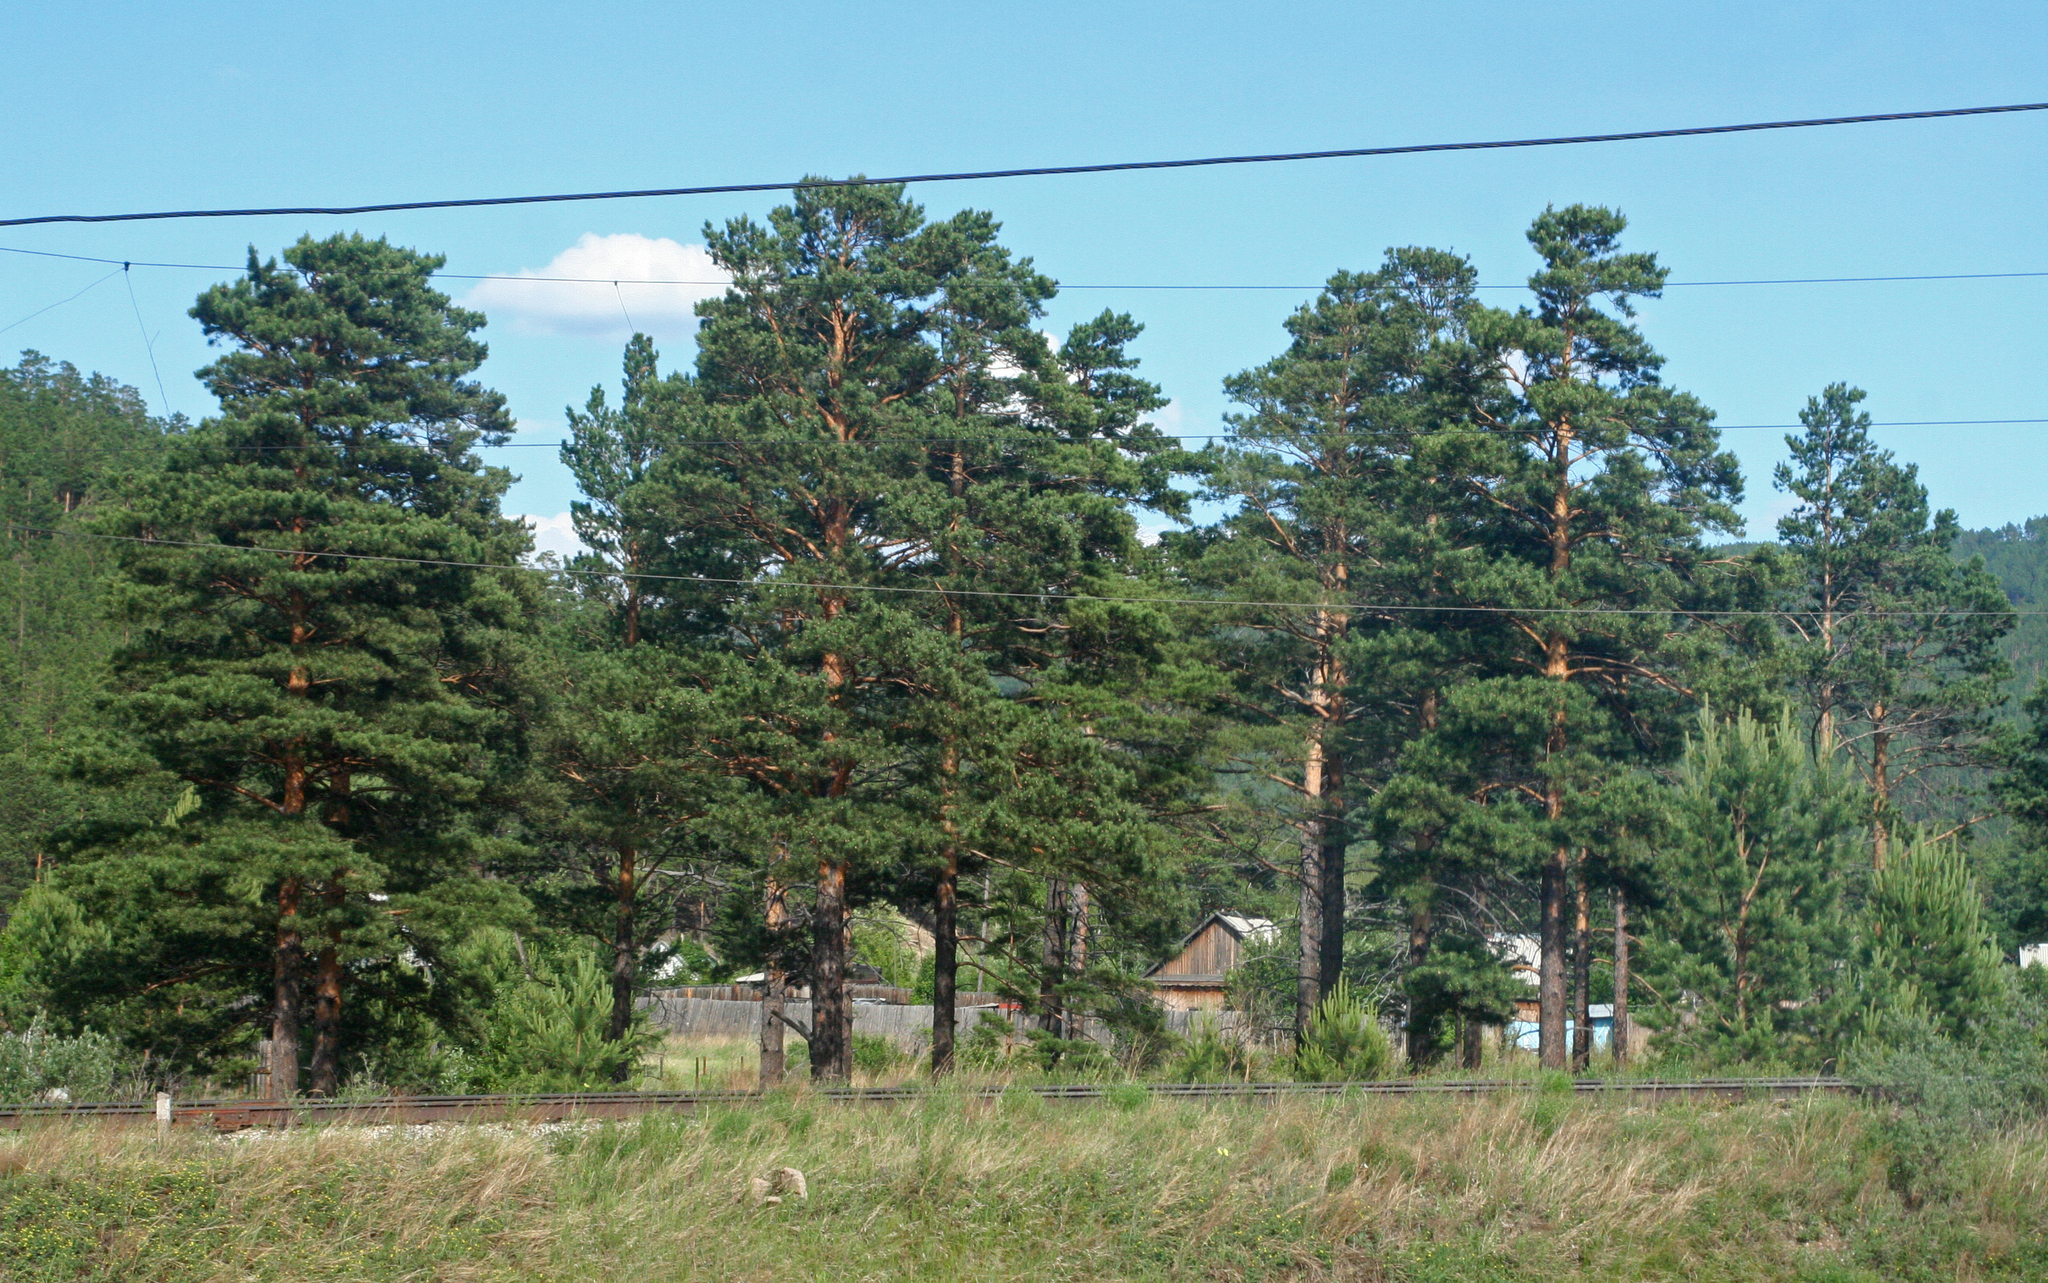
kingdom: Plantae
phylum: Tracheophyta
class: Pinopsida
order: Pinales
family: Pinaceae
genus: Pinus
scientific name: Pinus sylvestris
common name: Scots pine
